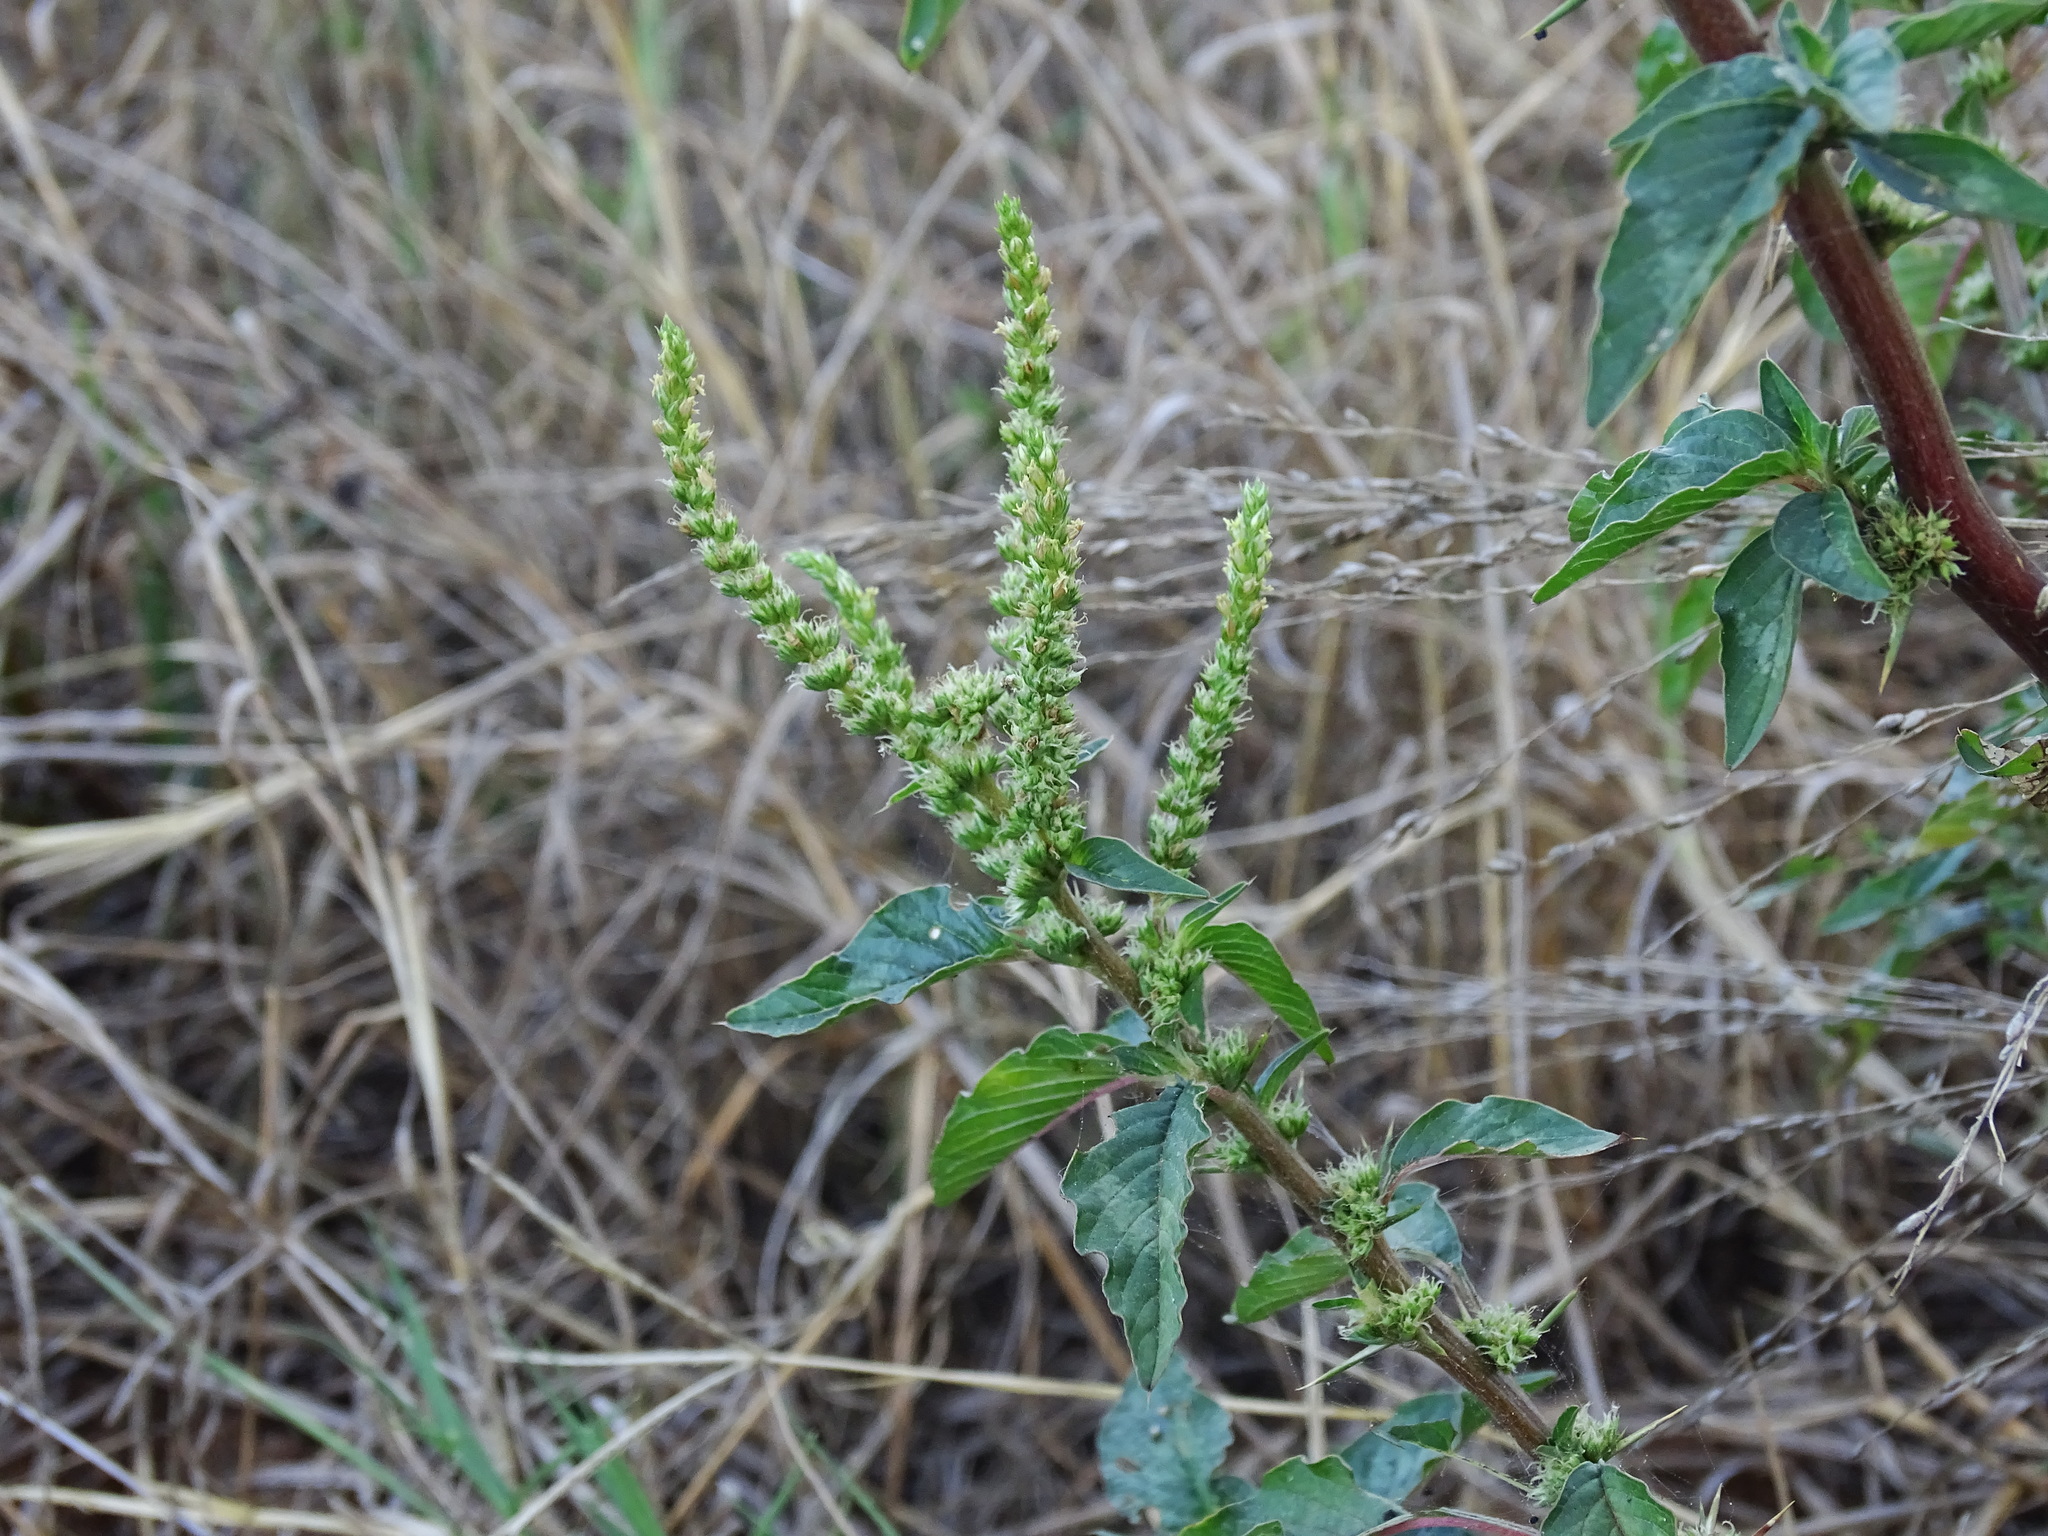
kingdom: Plantae
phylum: Tracheophyta
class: Magnoliopsida
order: Caryophyllales
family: Amaranthaceae
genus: Amaranthus
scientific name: Amaranthus spinosus
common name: Spiny amaranth
